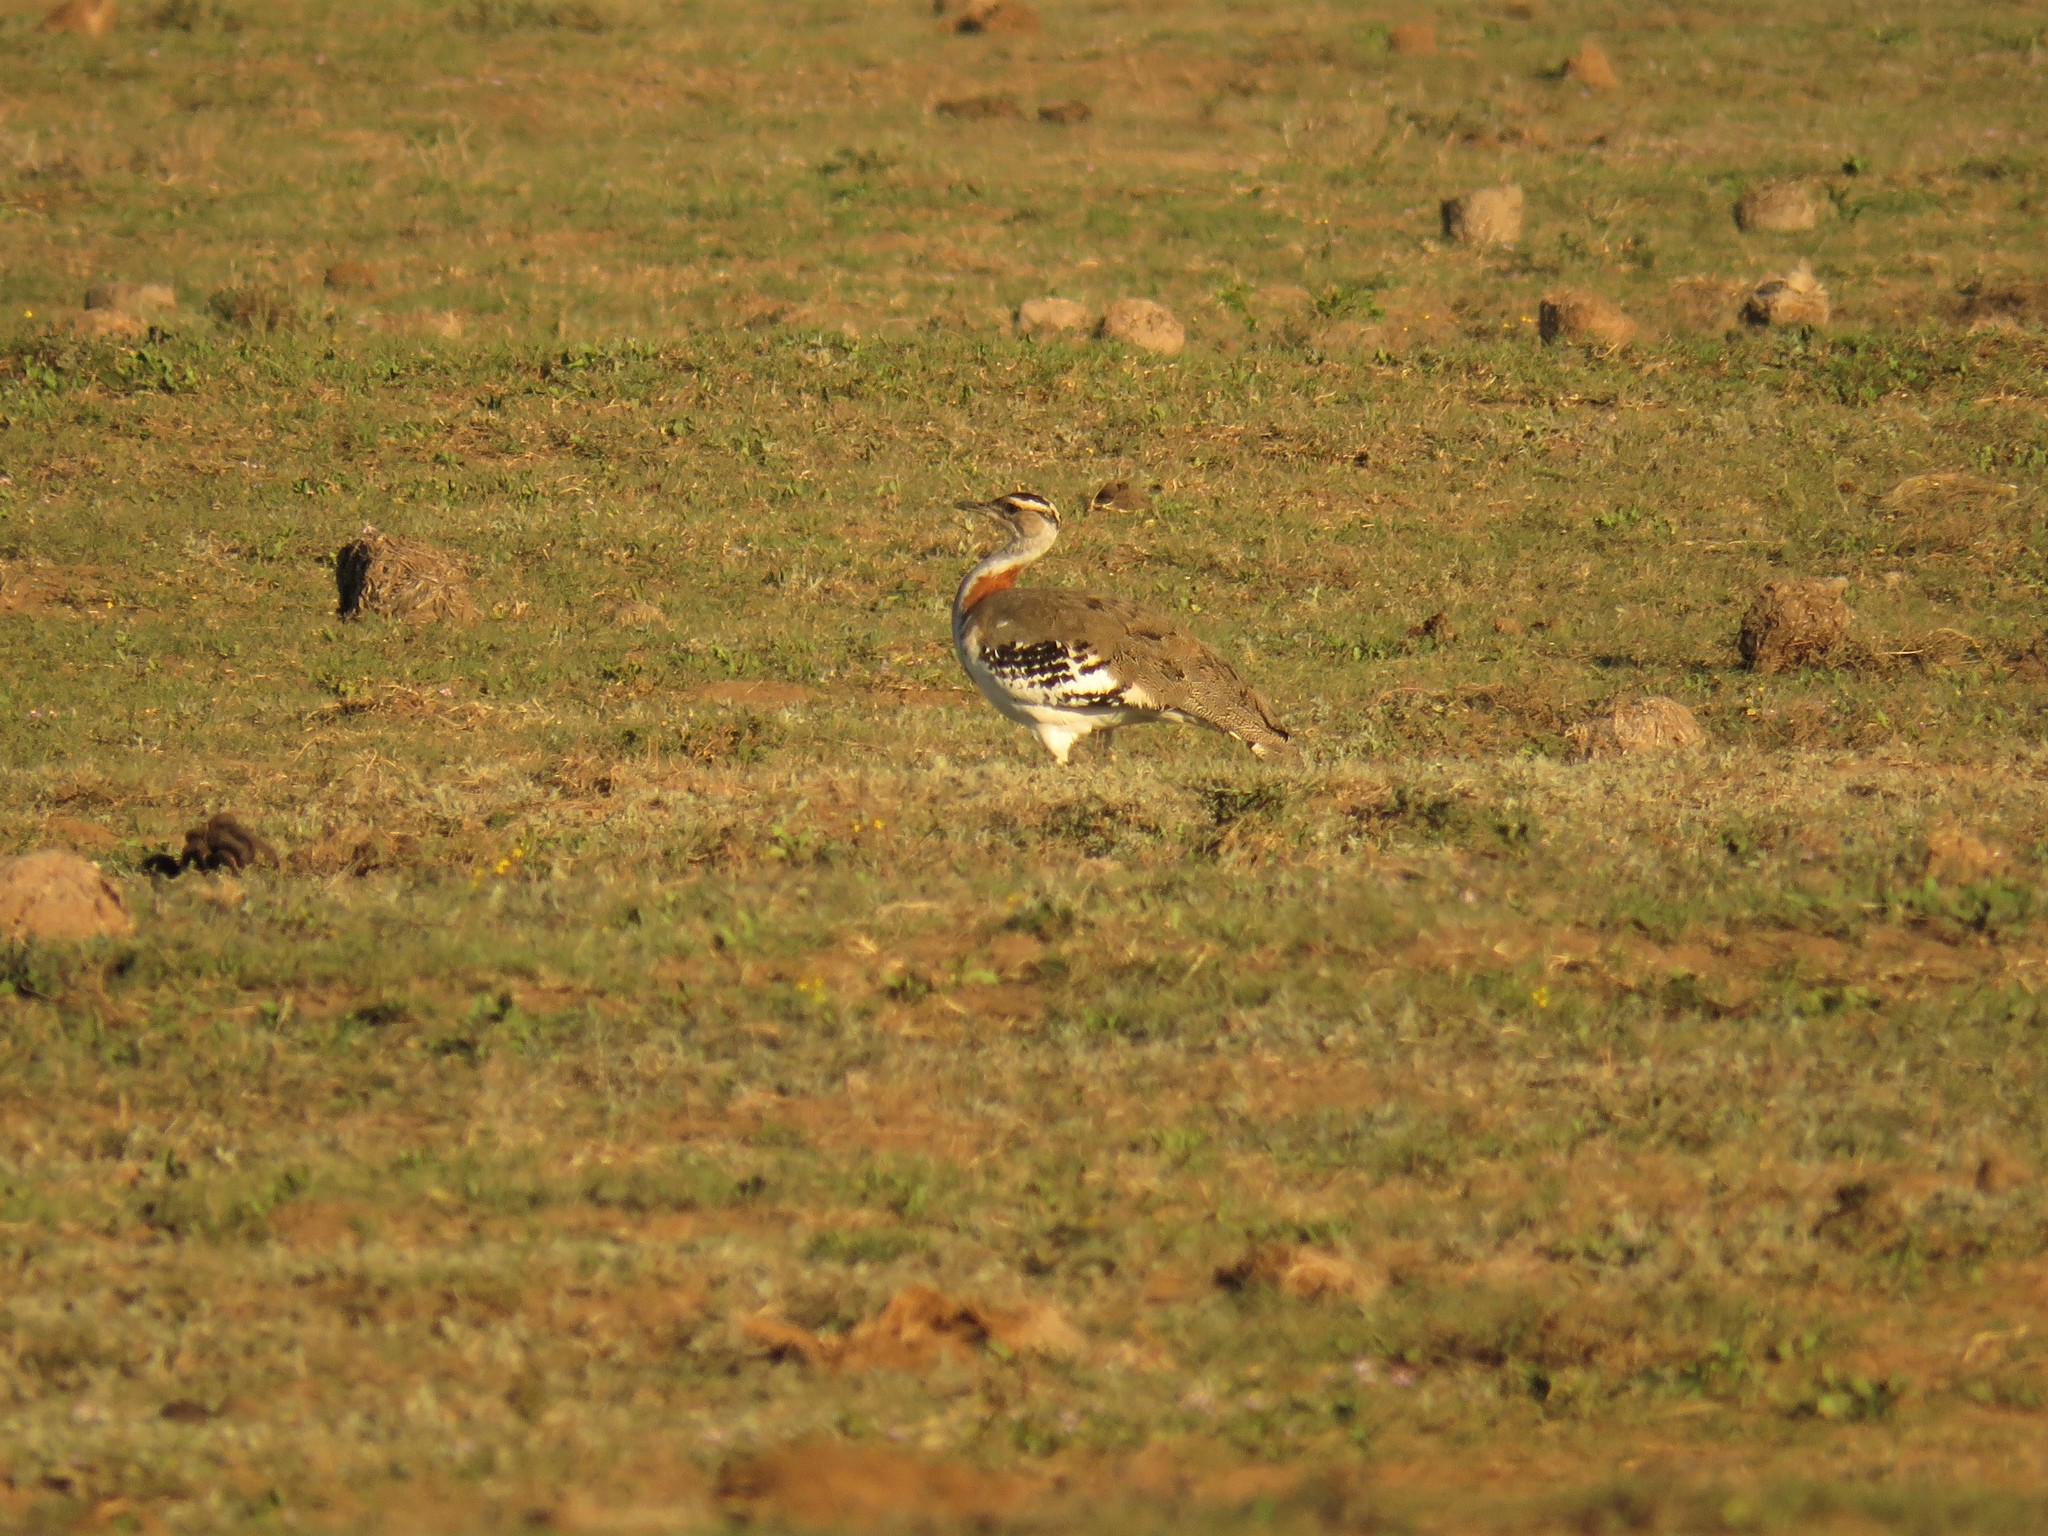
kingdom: Animalia
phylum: Chordata
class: Aves
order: Otidiformes
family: Otididae
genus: Neotis
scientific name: Neotis denhami
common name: Denham's bustard
